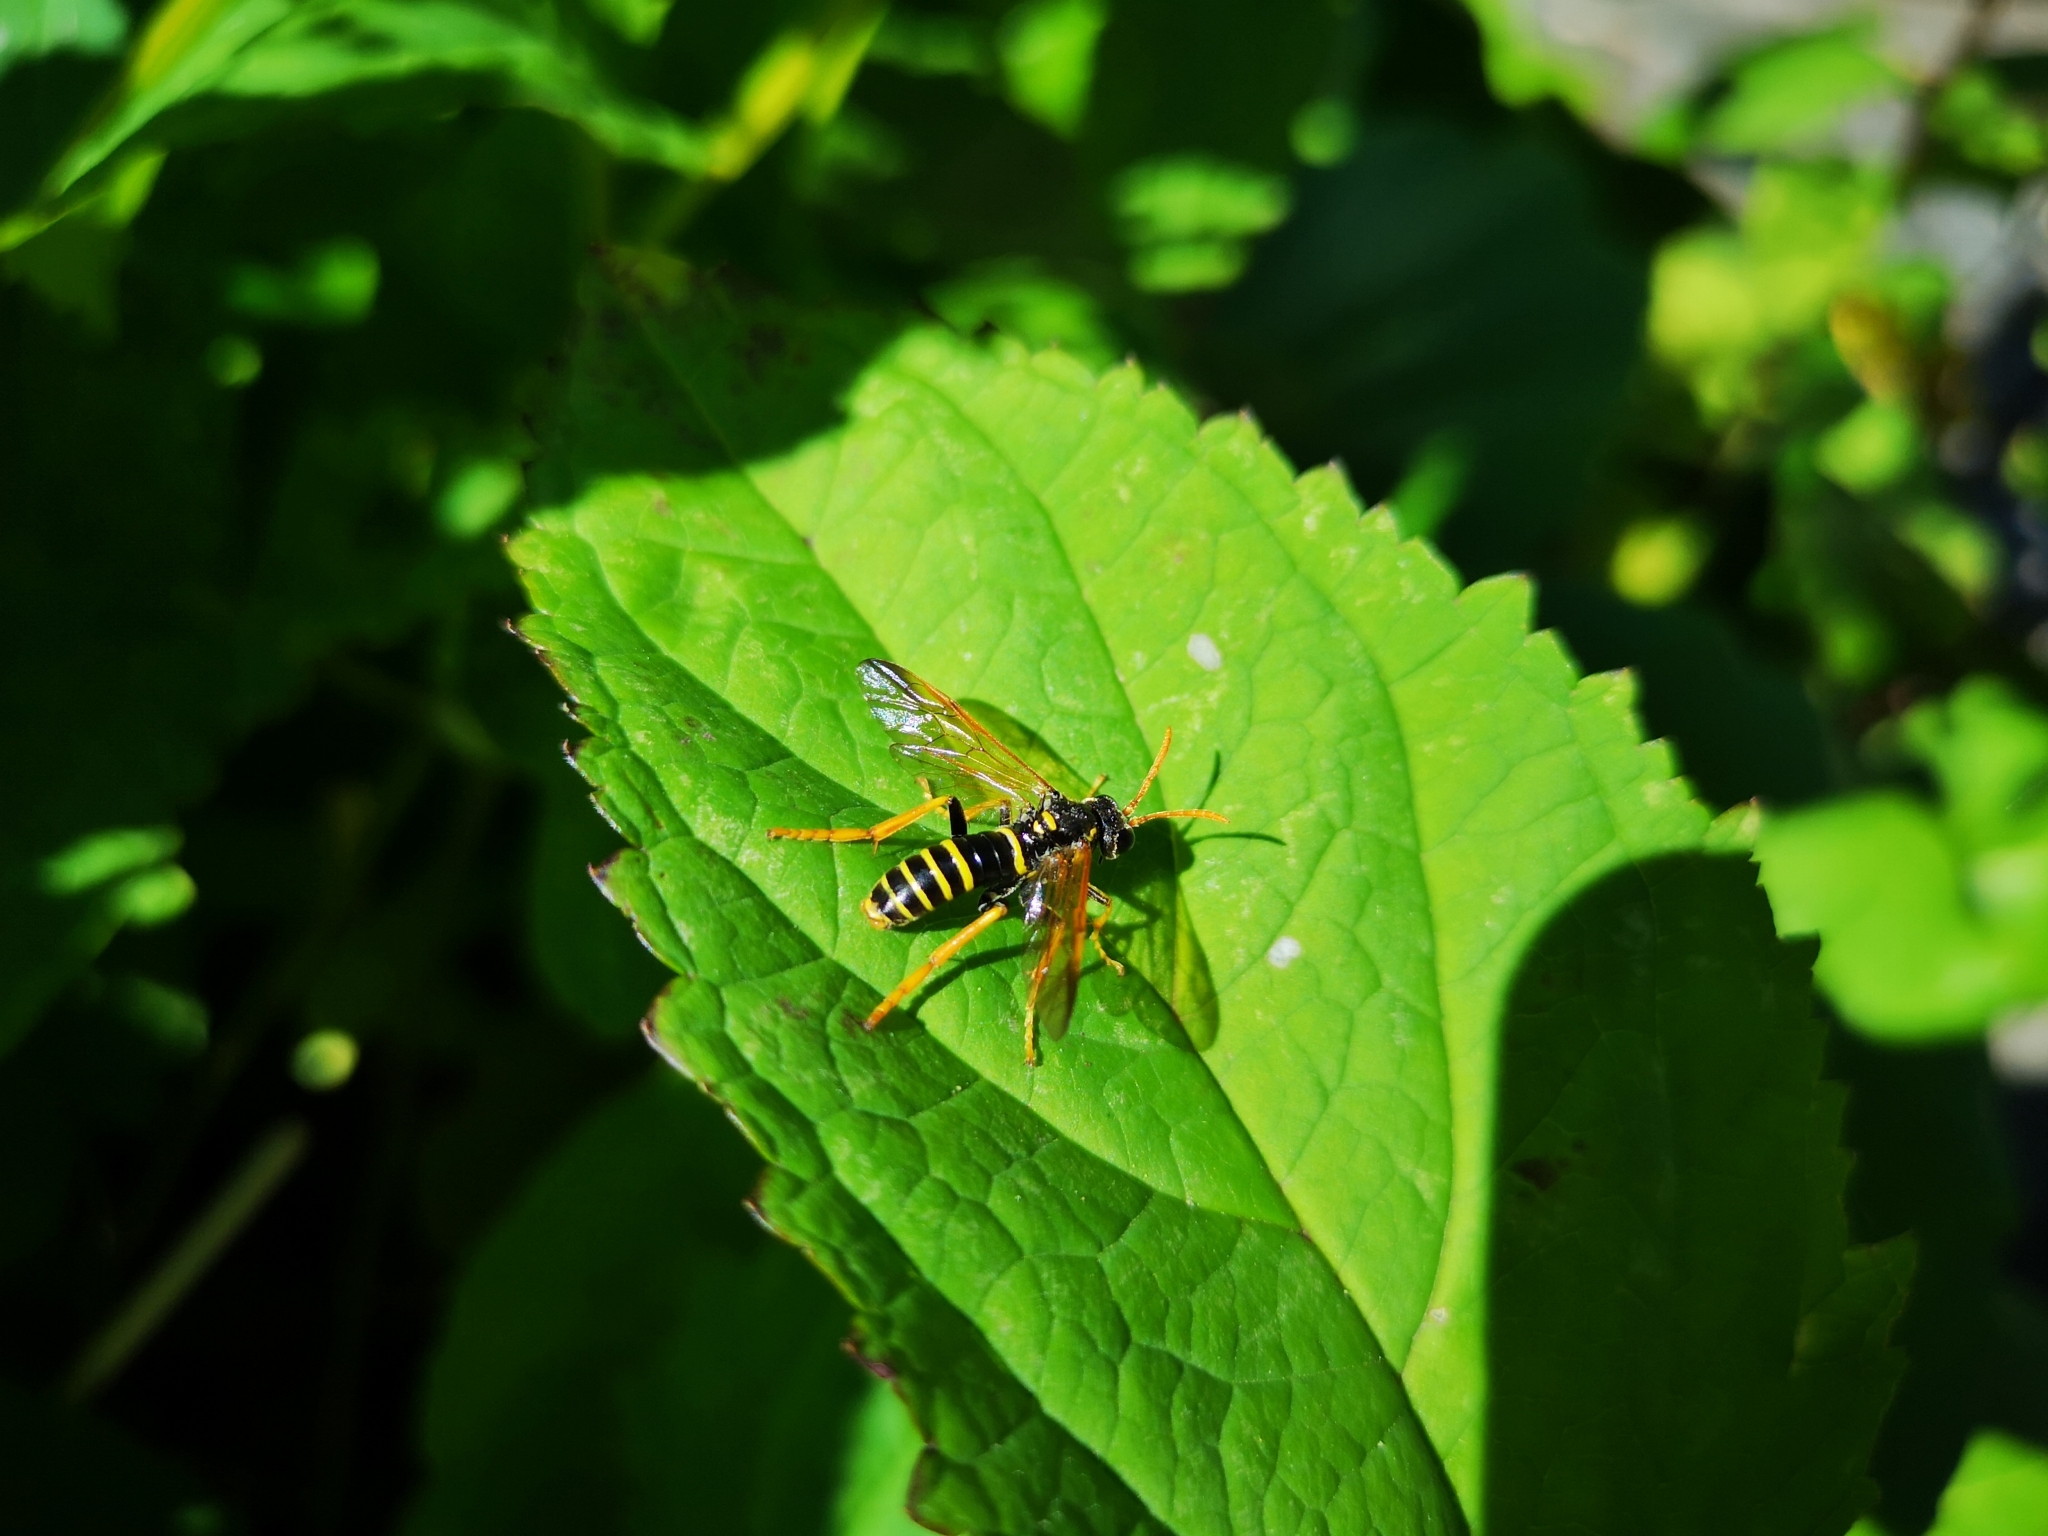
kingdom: Animalia
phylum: Arthropoda
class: Insecta
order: Hymenoptera
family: Tenthredinidae
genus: Tenthredo
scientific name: Tenthredo scrophulariae
